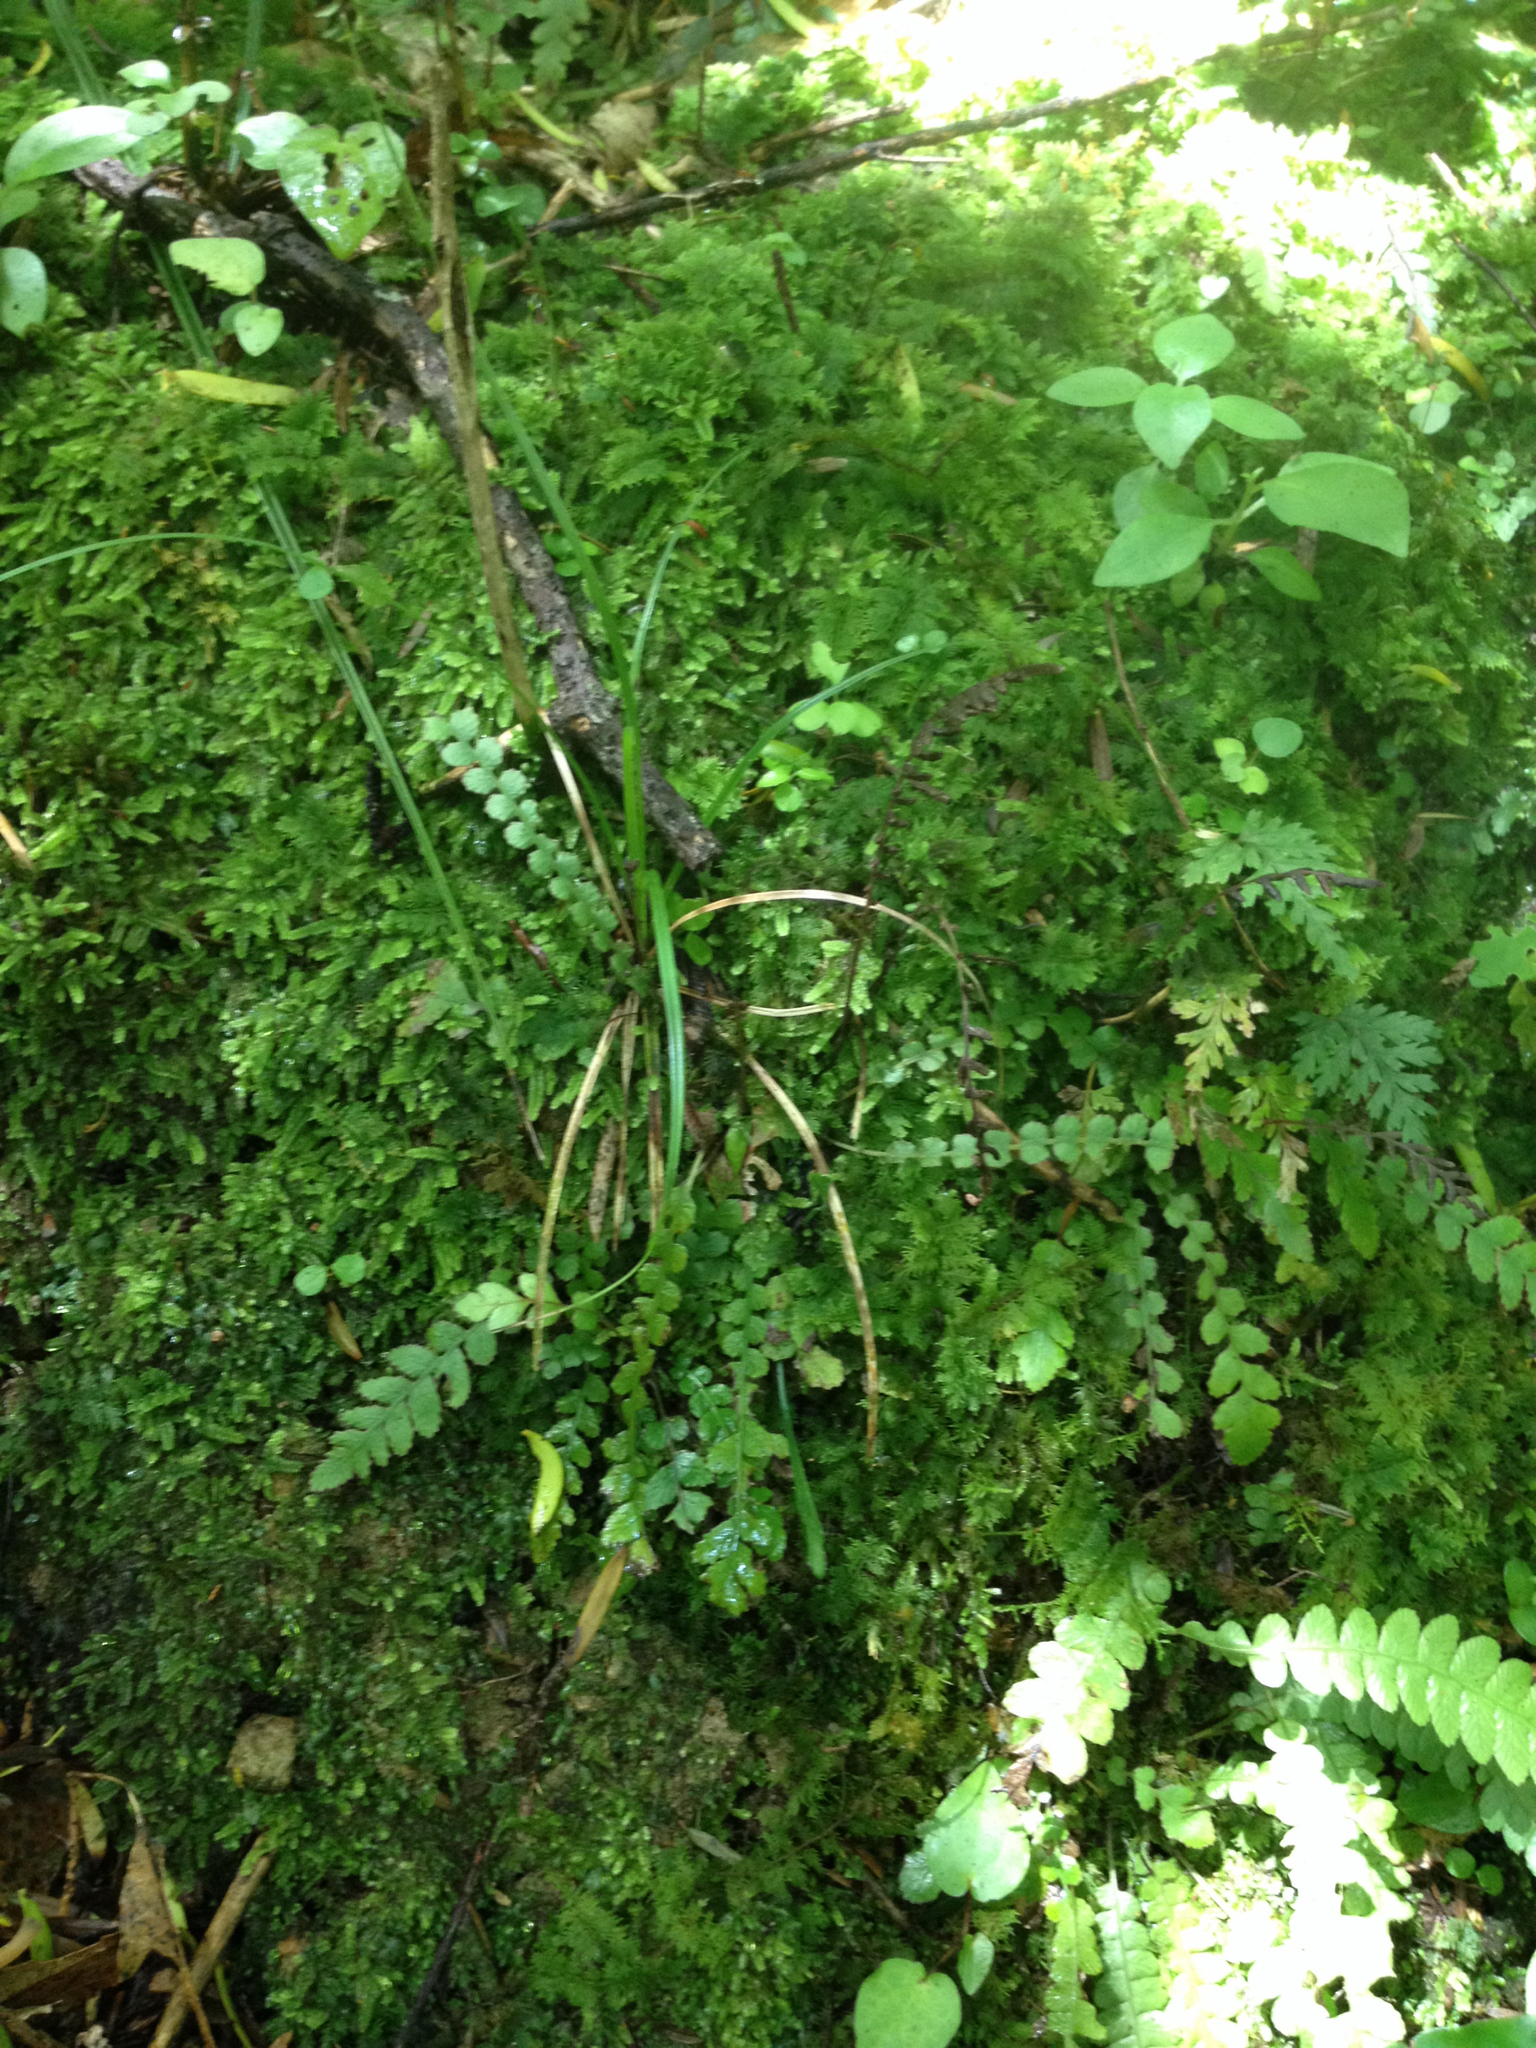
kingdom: Plantae
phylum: Tracheophyta
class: Polypodiopsida
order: Polypodiales
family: Blechnaceae
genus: Austroblechnum
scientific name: Austroblechnum membranaceum
